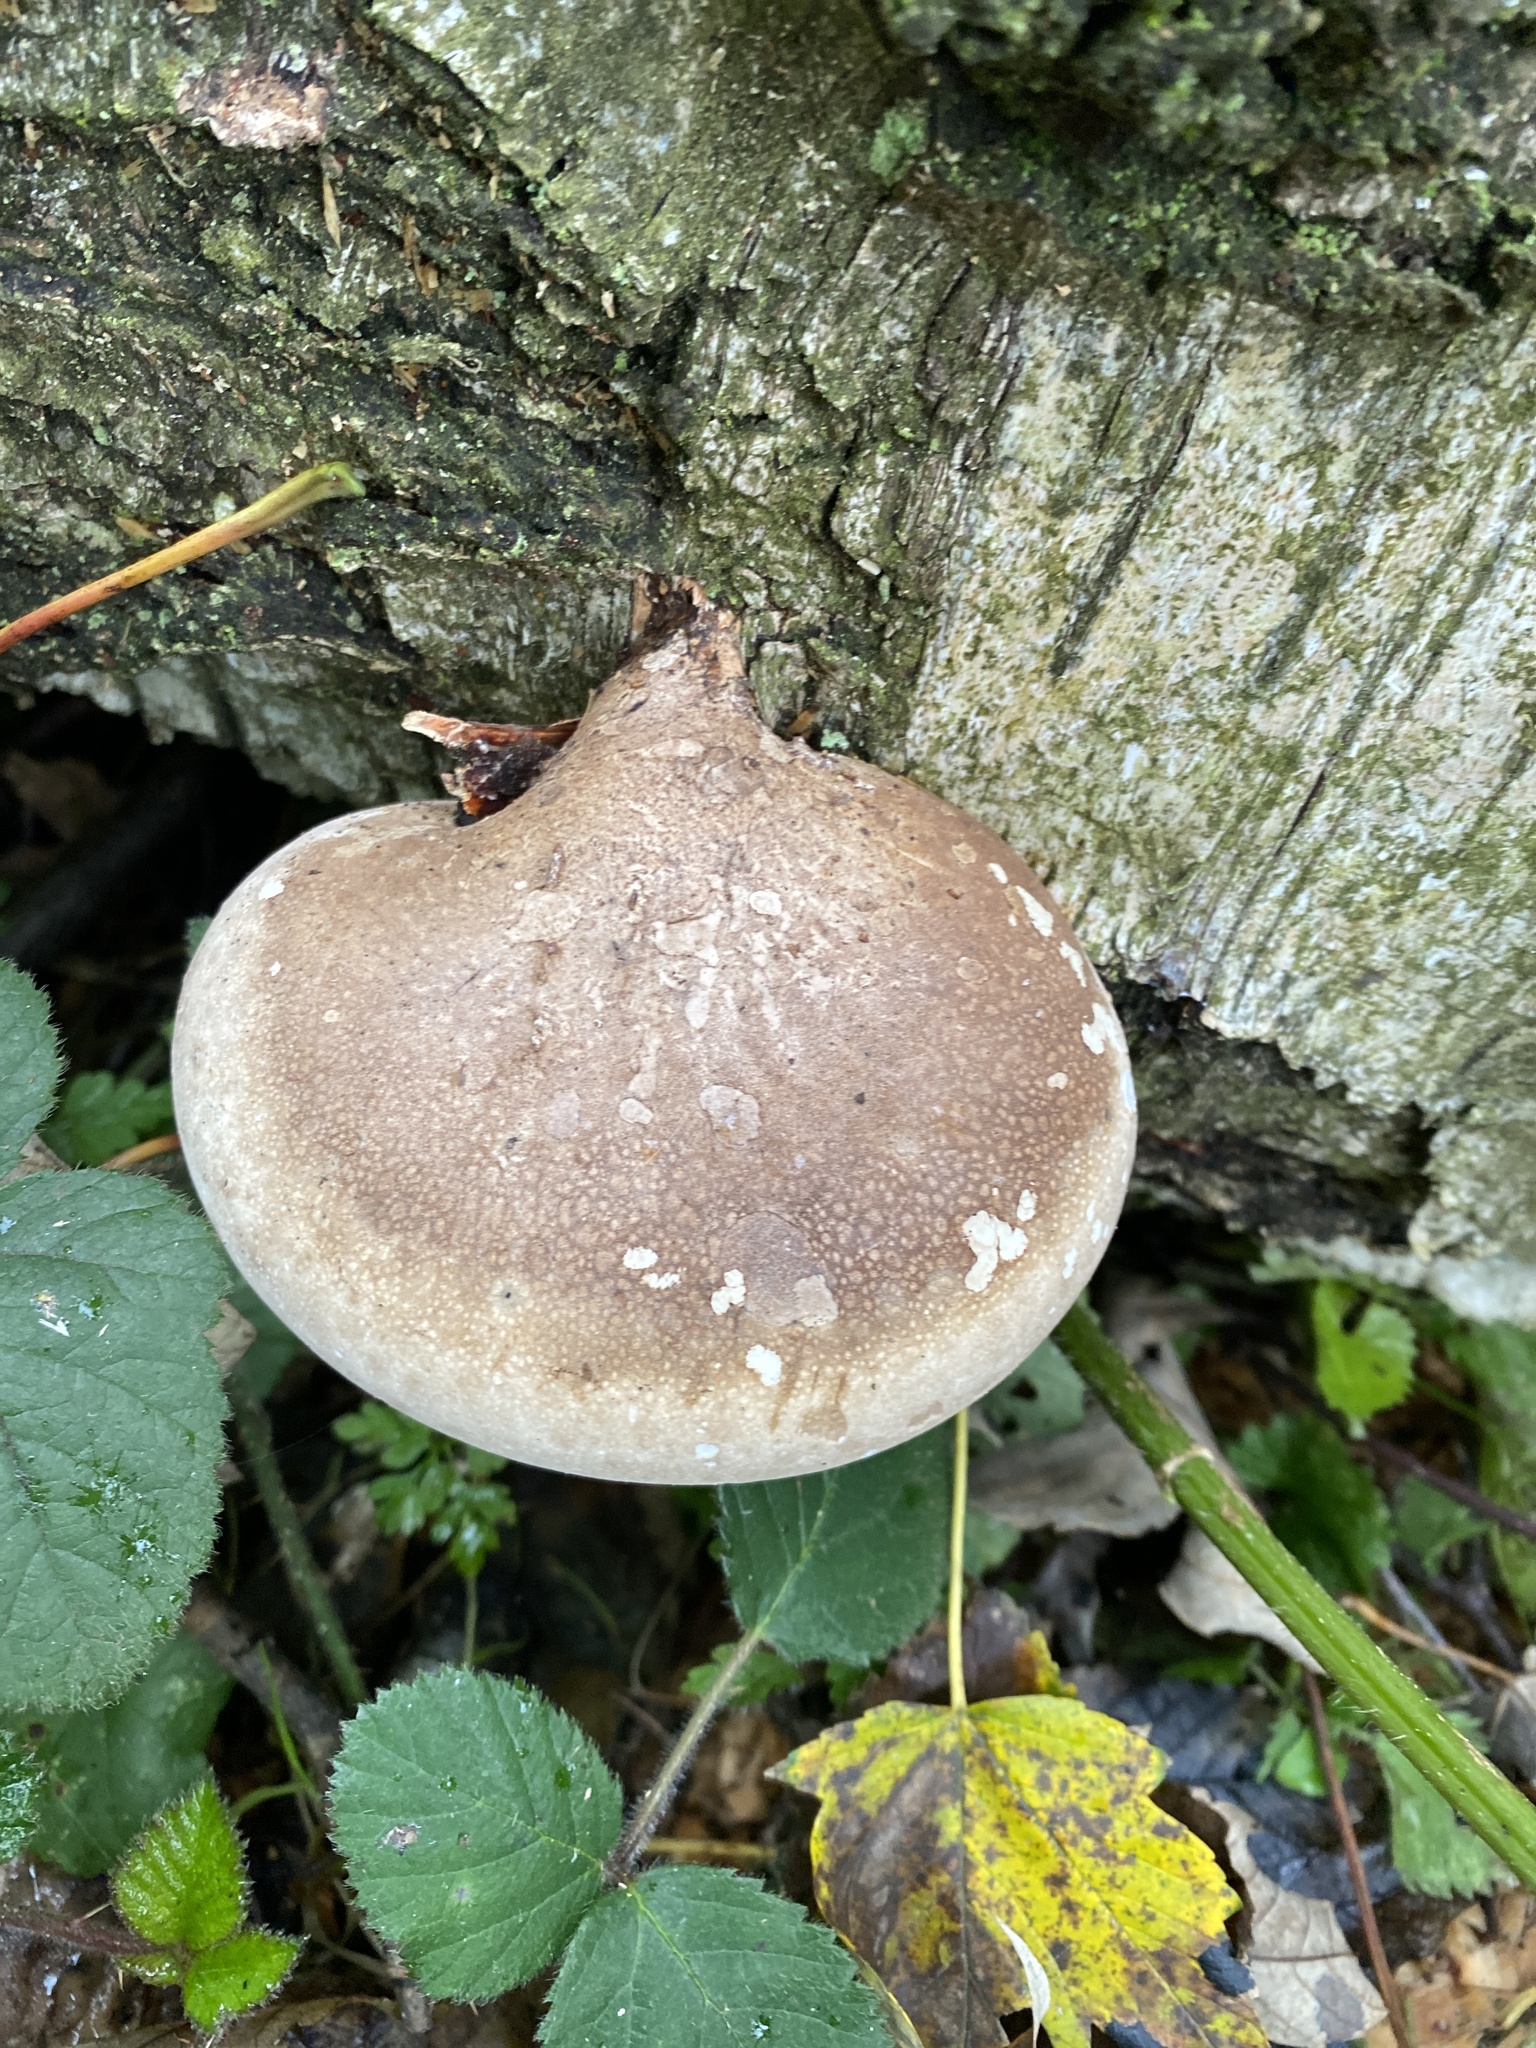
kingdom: Fungi
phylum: Basidiomycota
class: Agaricomycetes
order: Polyporales
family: Fomitopsidaceae
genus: Fomitopsis
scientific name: Fomitopsis betulina
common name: Birch polypore
